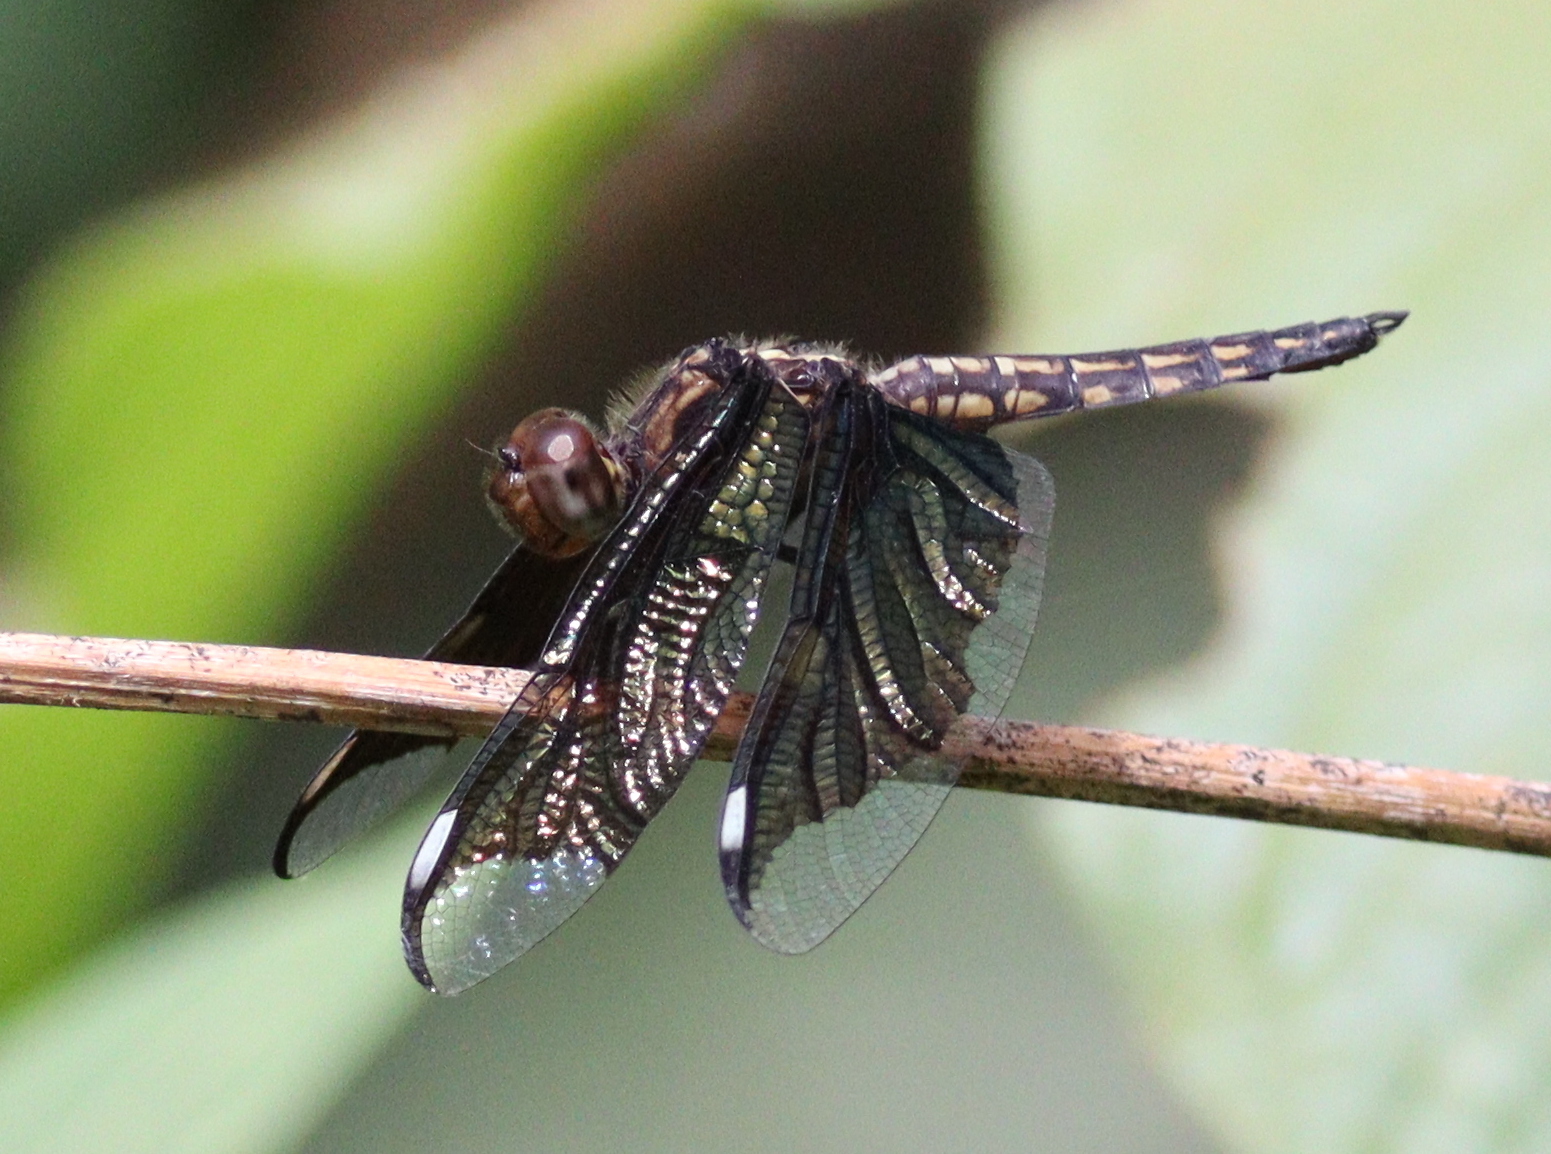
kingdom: Animalia
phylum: Arthropoda
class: Insecta
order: Odonata
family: Libellulidae
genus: Palpopleura
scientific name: Palpopleura lucia
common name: Lucia widow
